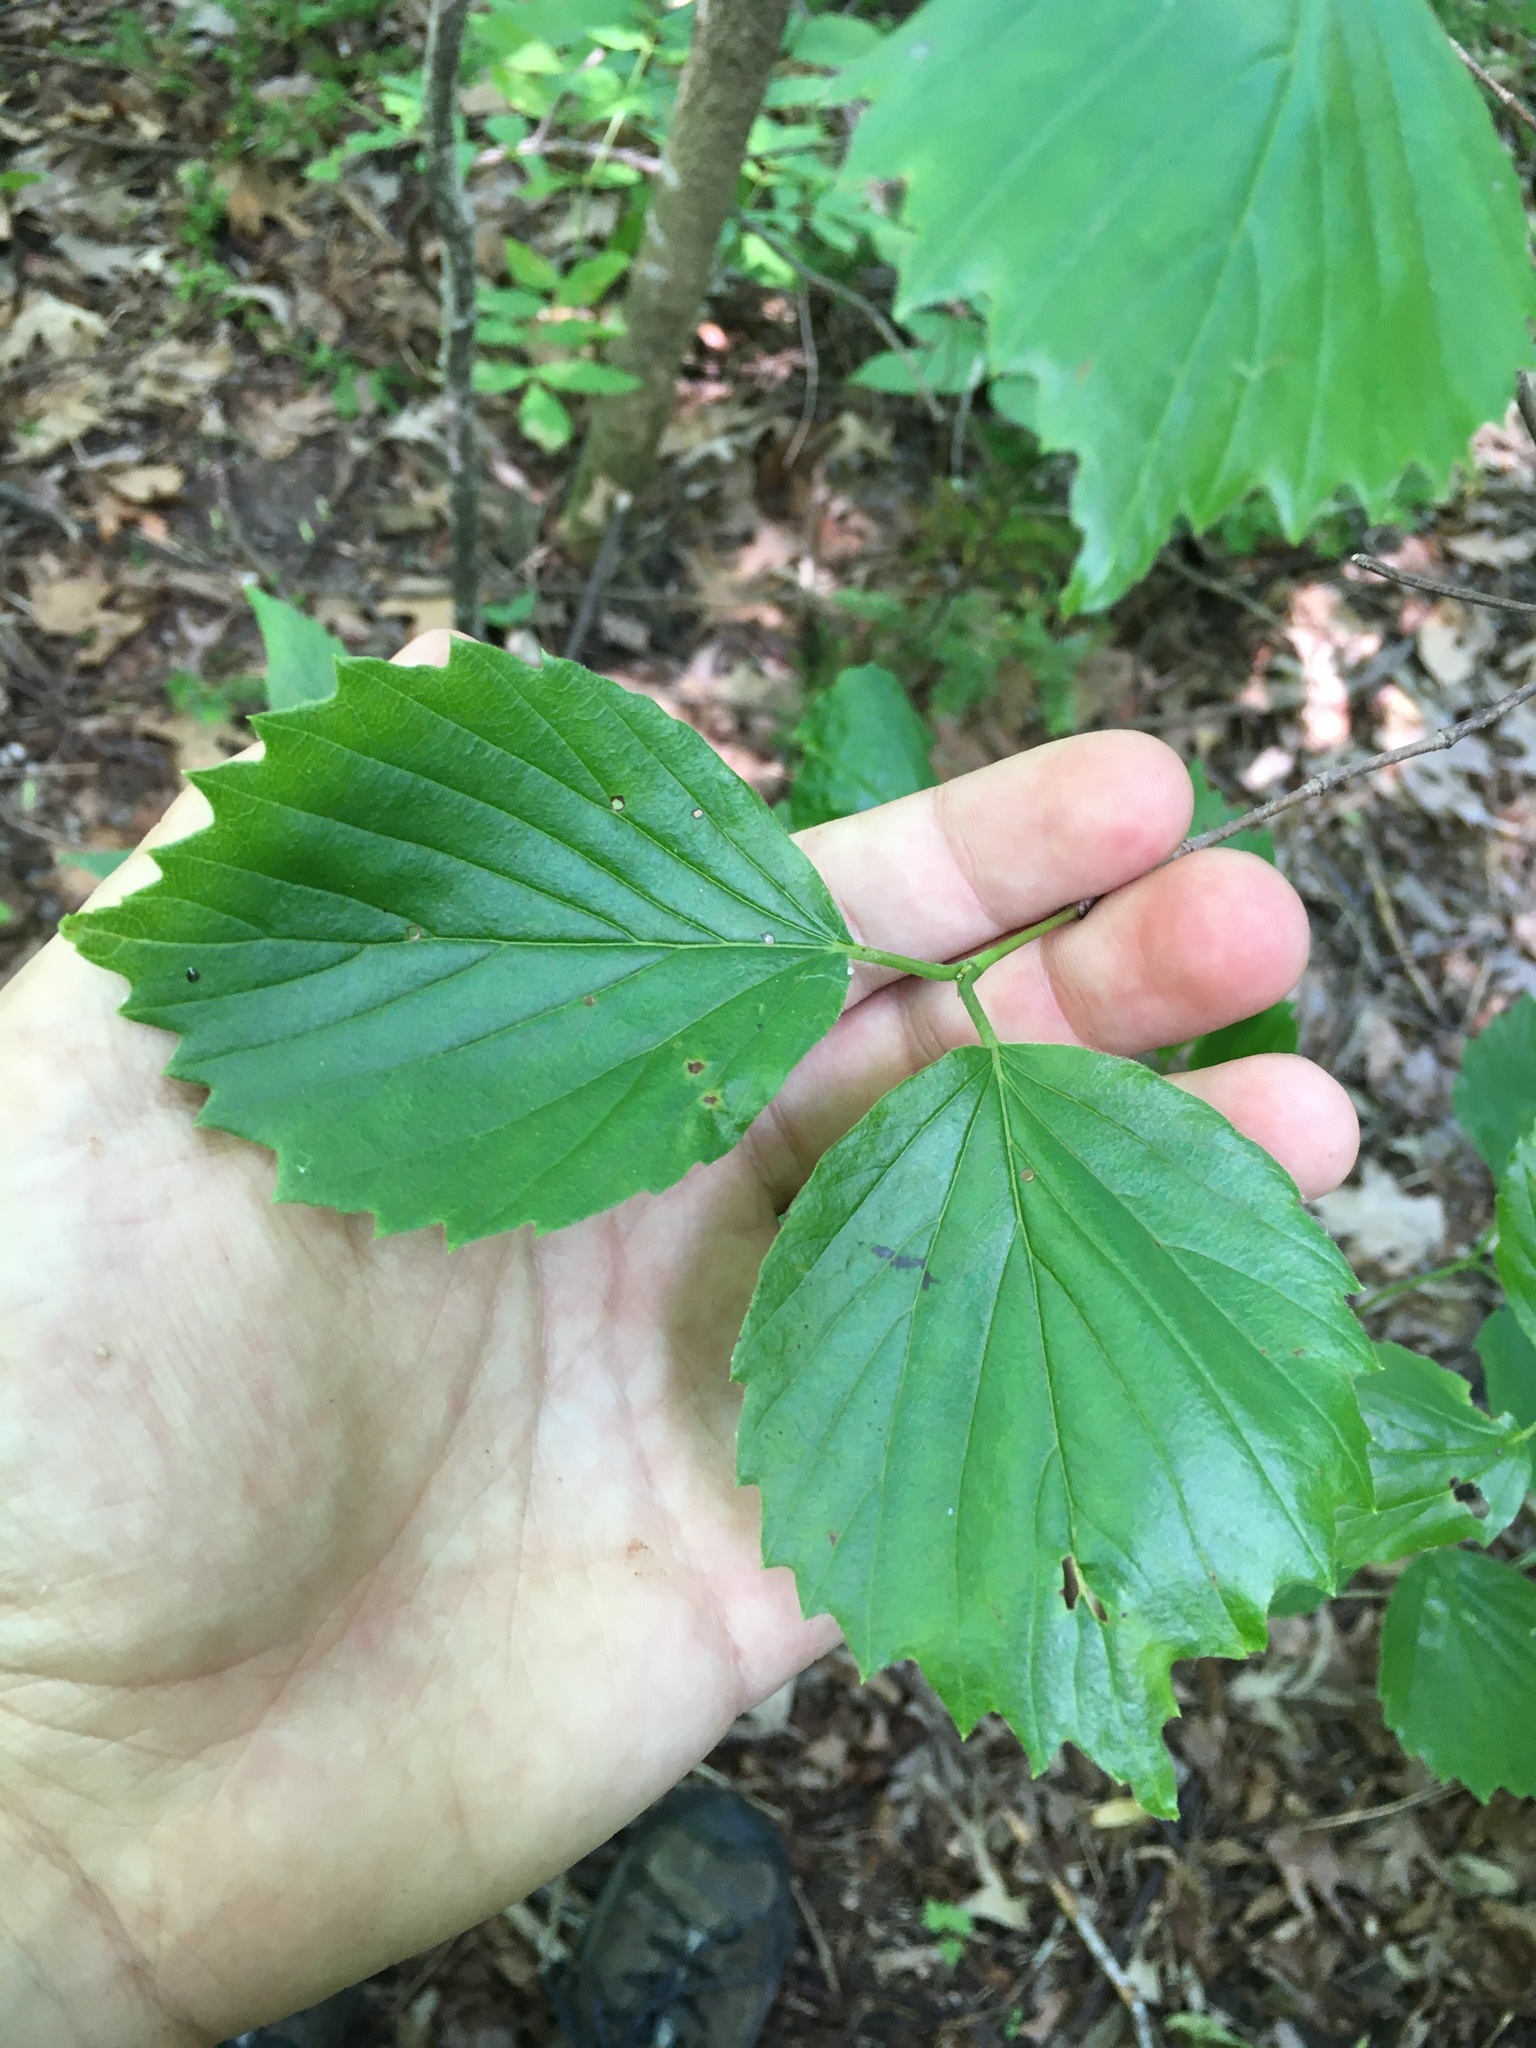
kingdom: Plantae
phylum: Tracheophyta
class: Magnoliopsida
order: Dipsacales
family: Viburnaceae
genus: Viburnum
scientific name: Viburnum rafinesqueanum
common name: Downy arrow-wood
